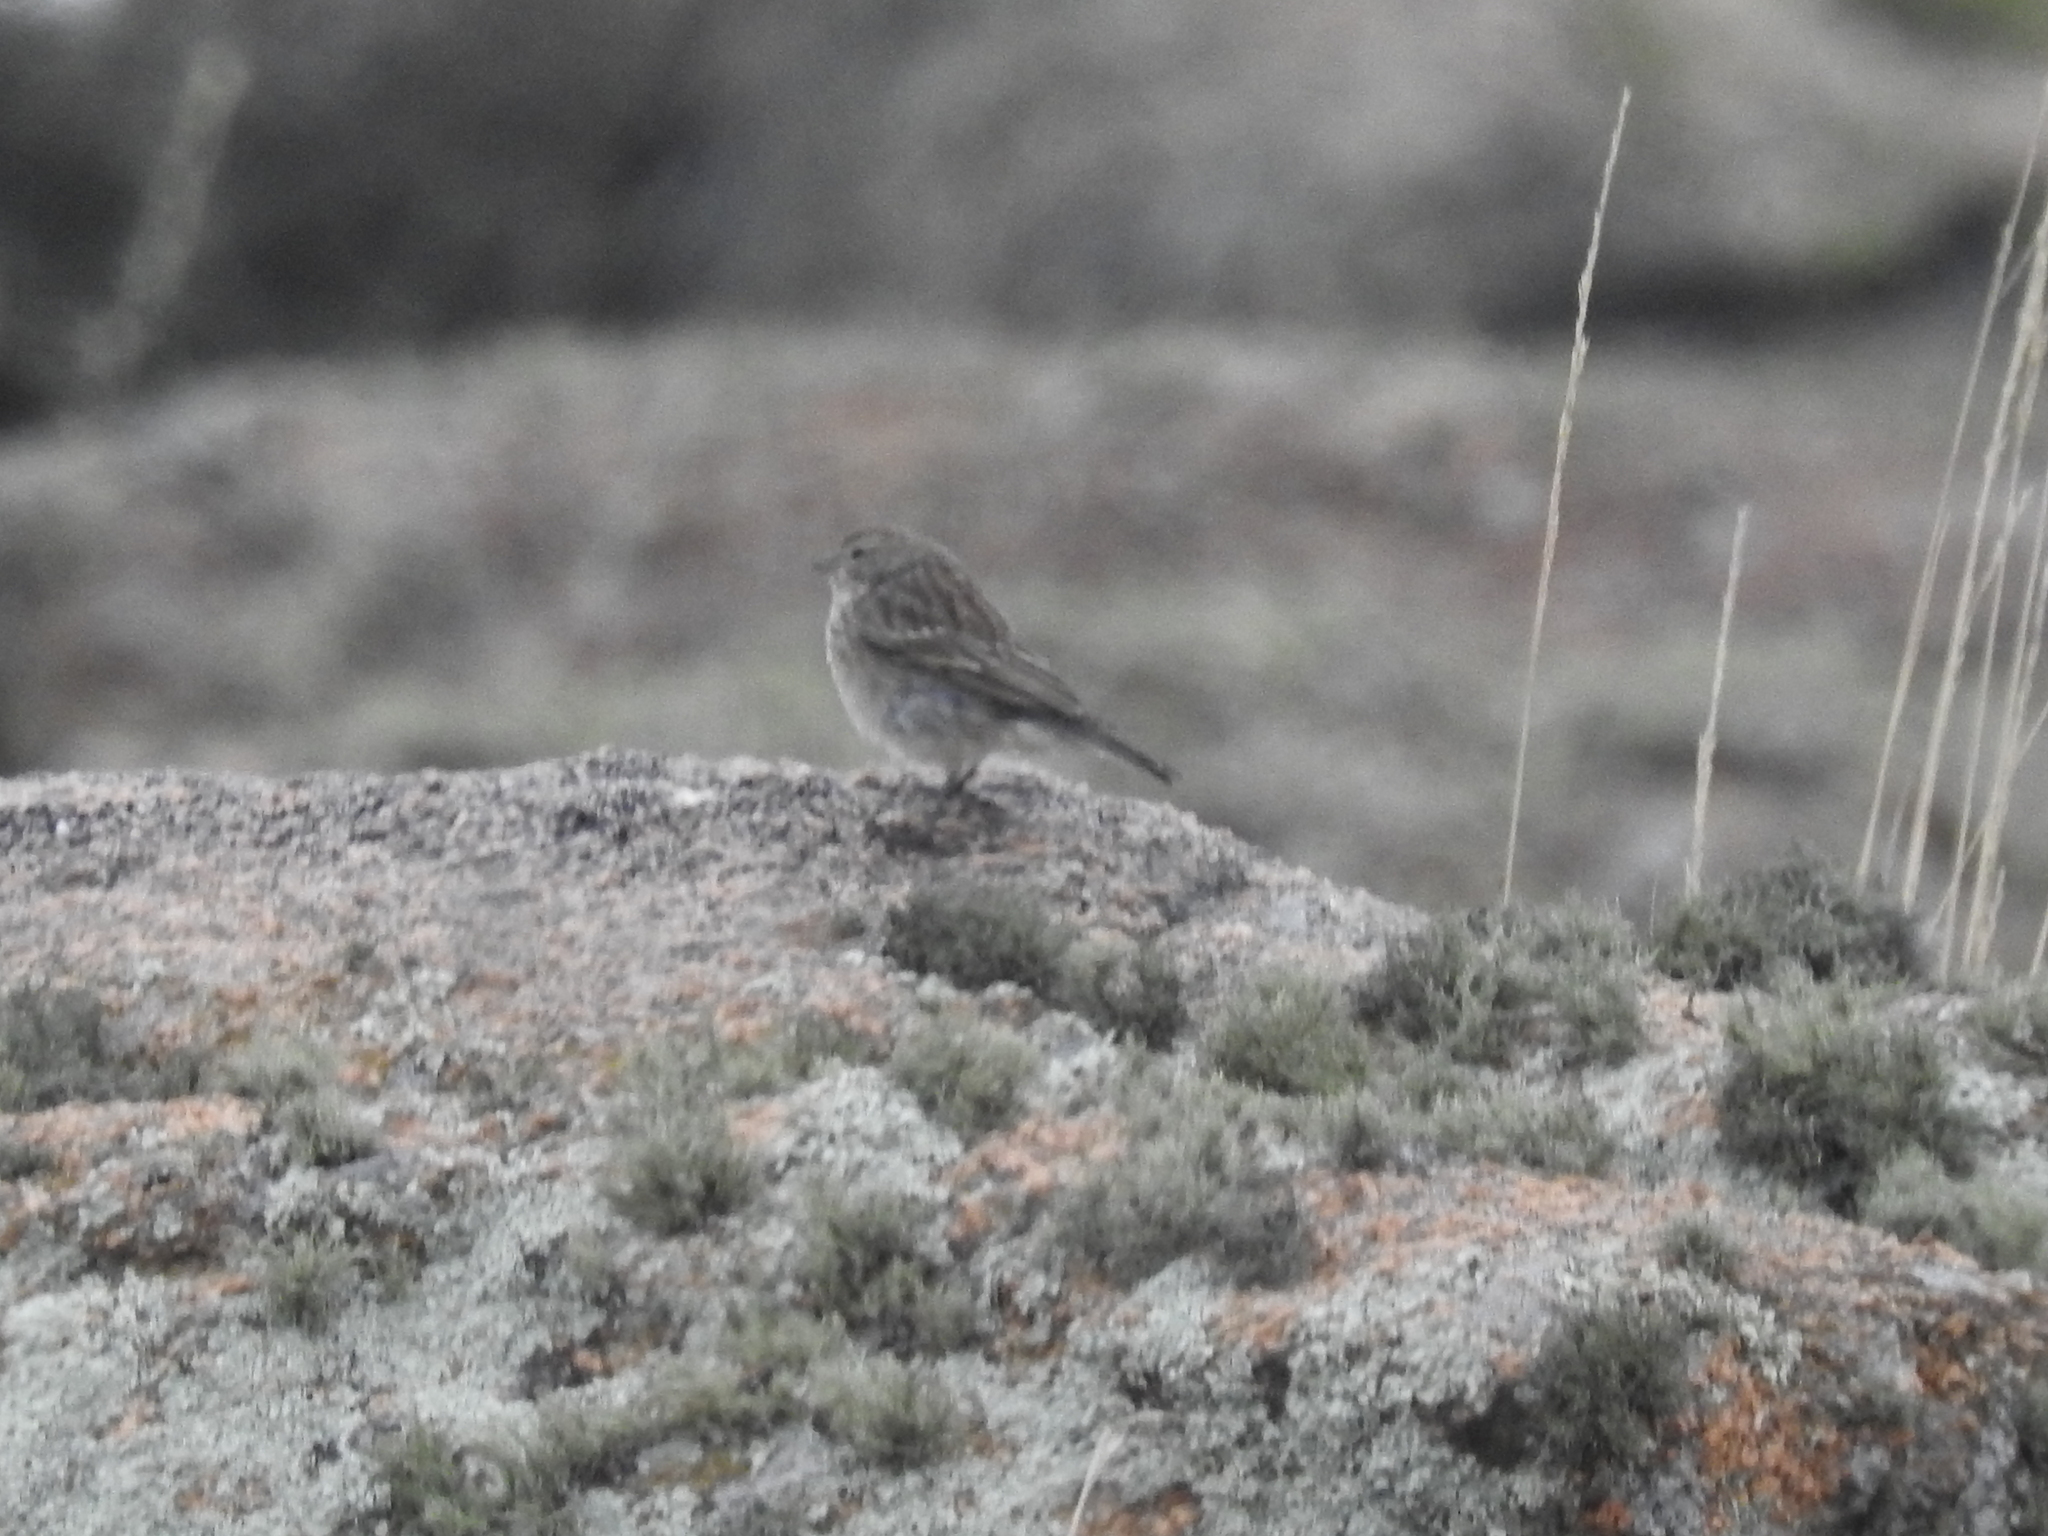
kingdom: Animalia
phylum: Chordata
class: Aves
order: Passeriformes
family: Thraupidae
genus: Geospizopsis
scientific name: Geospizopsis plebejus
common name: Ash-breasted sierra-finch
